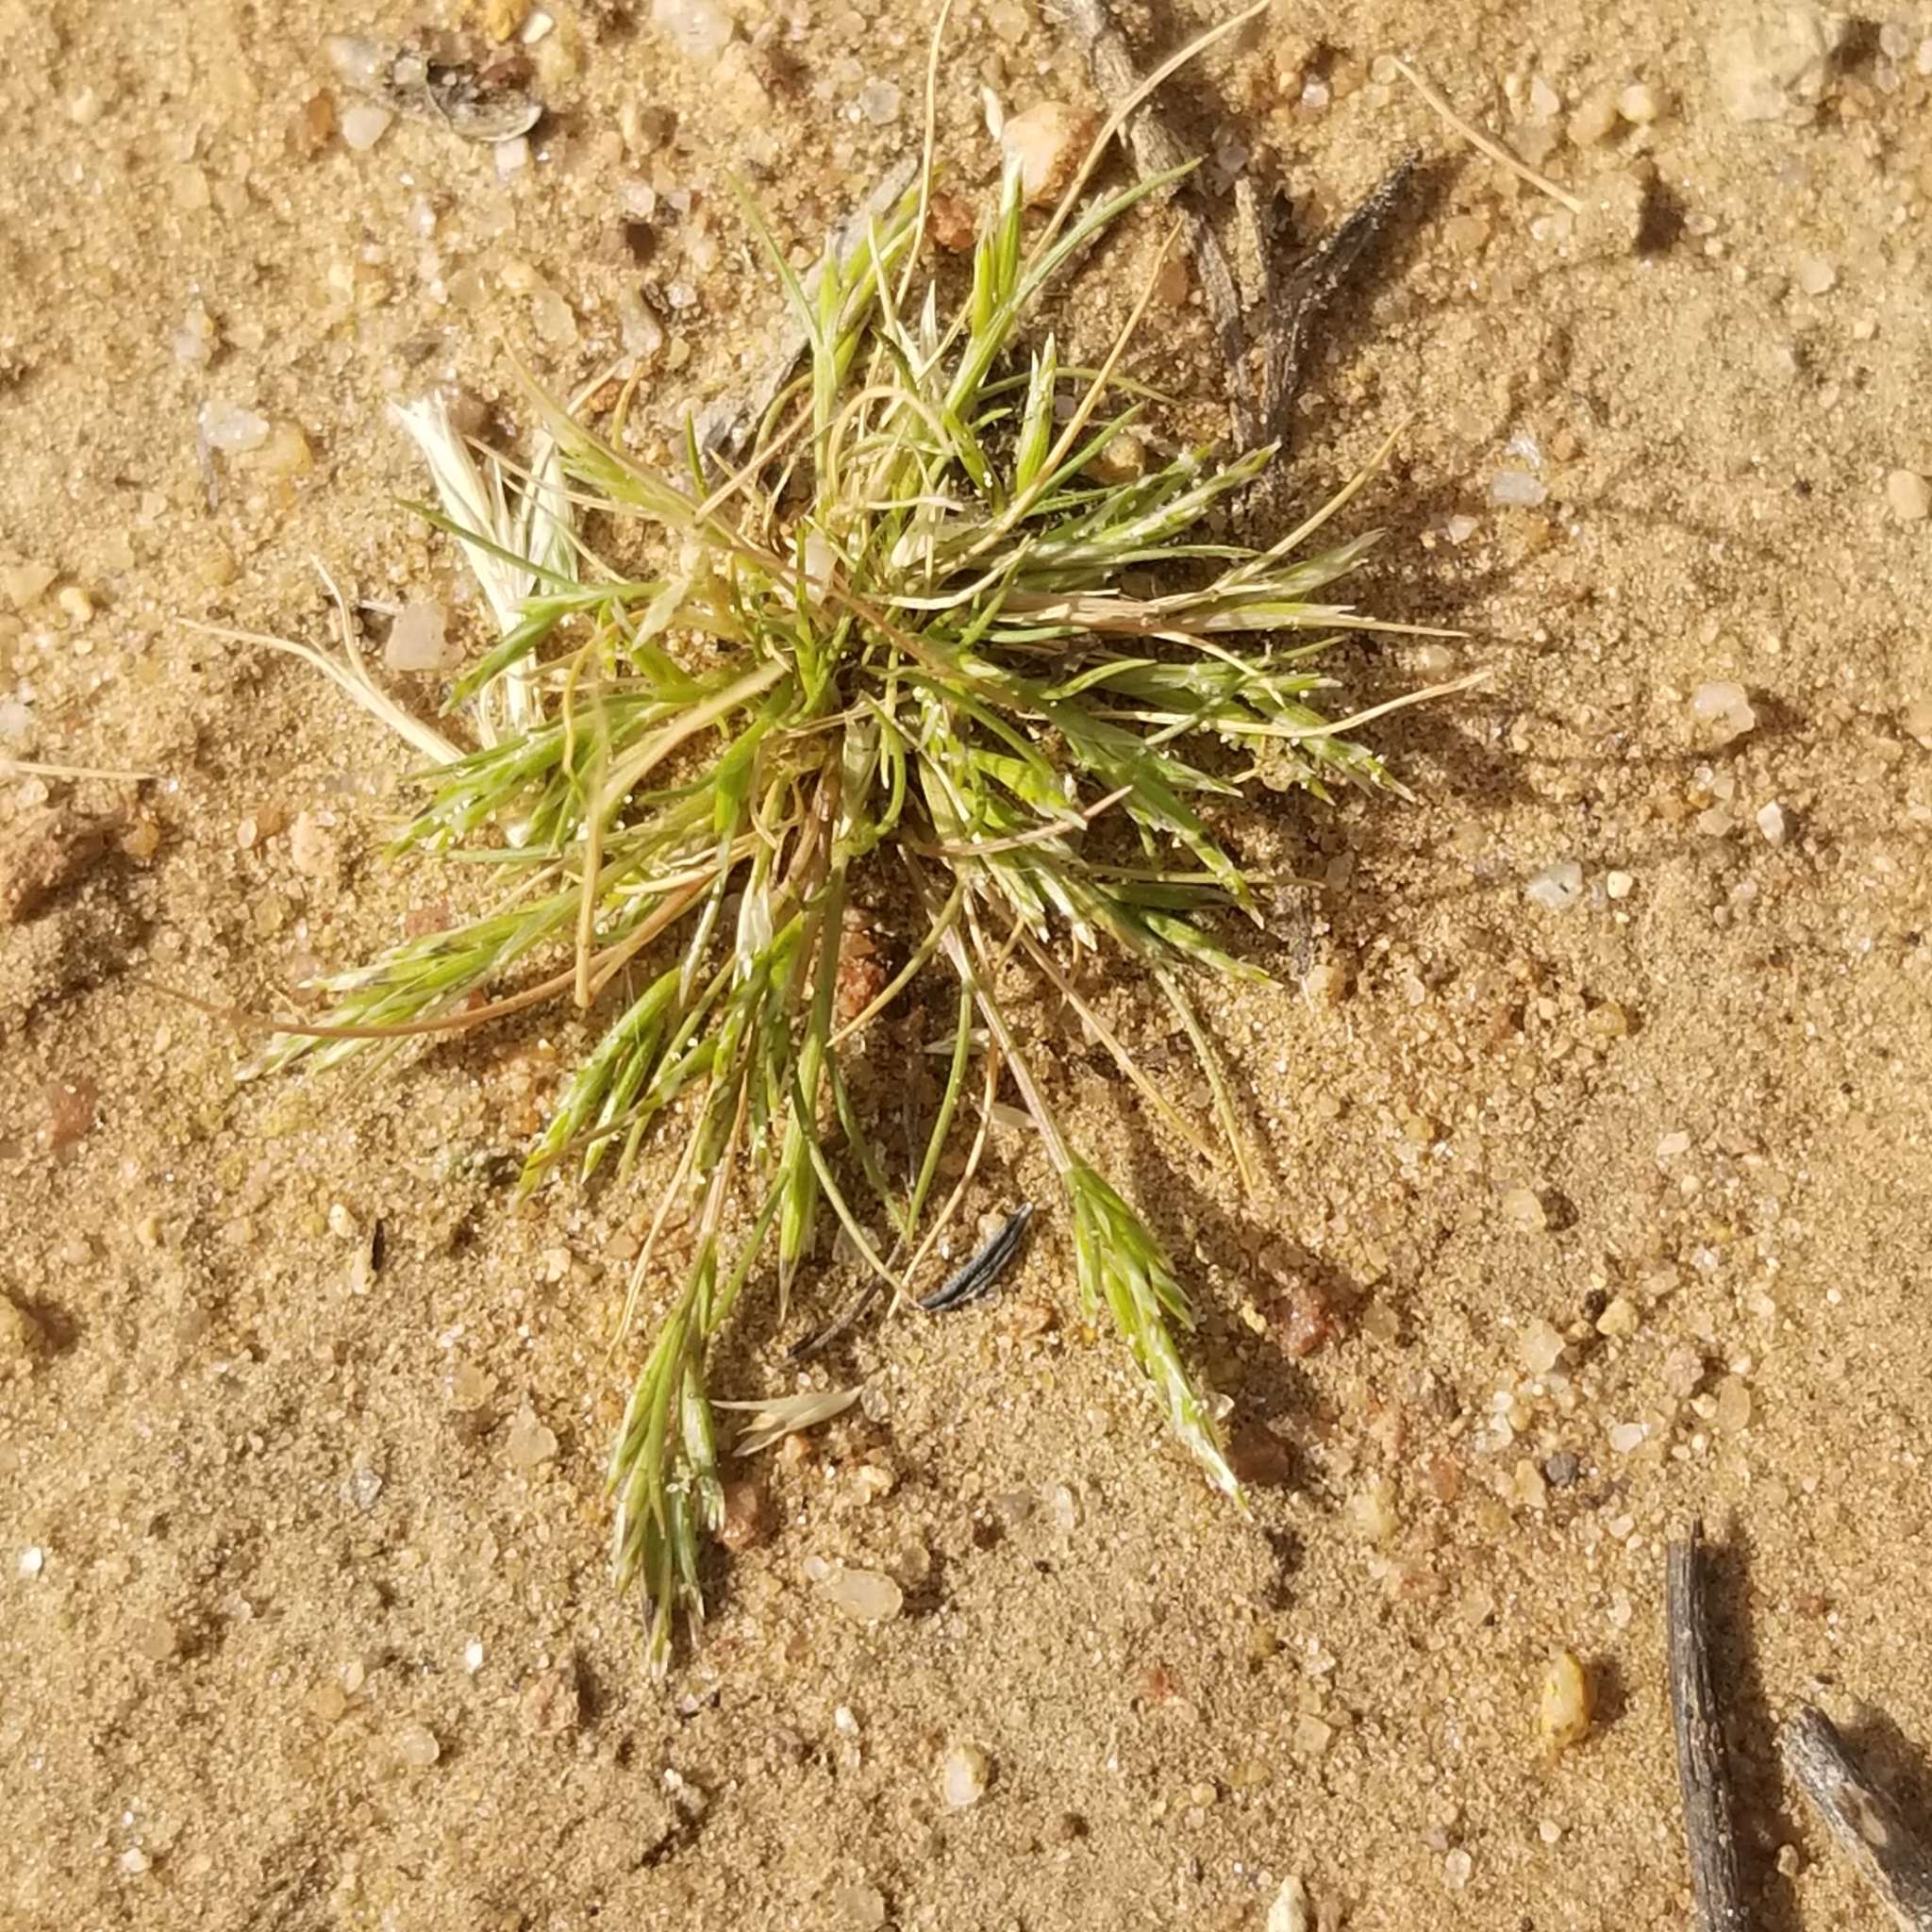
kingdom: Plantae
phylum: Tracheophyta
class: Liliopsida
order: Poales
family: Poaceae
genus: Schismus
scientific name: Schismus barbatus
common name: Kelch-grass
